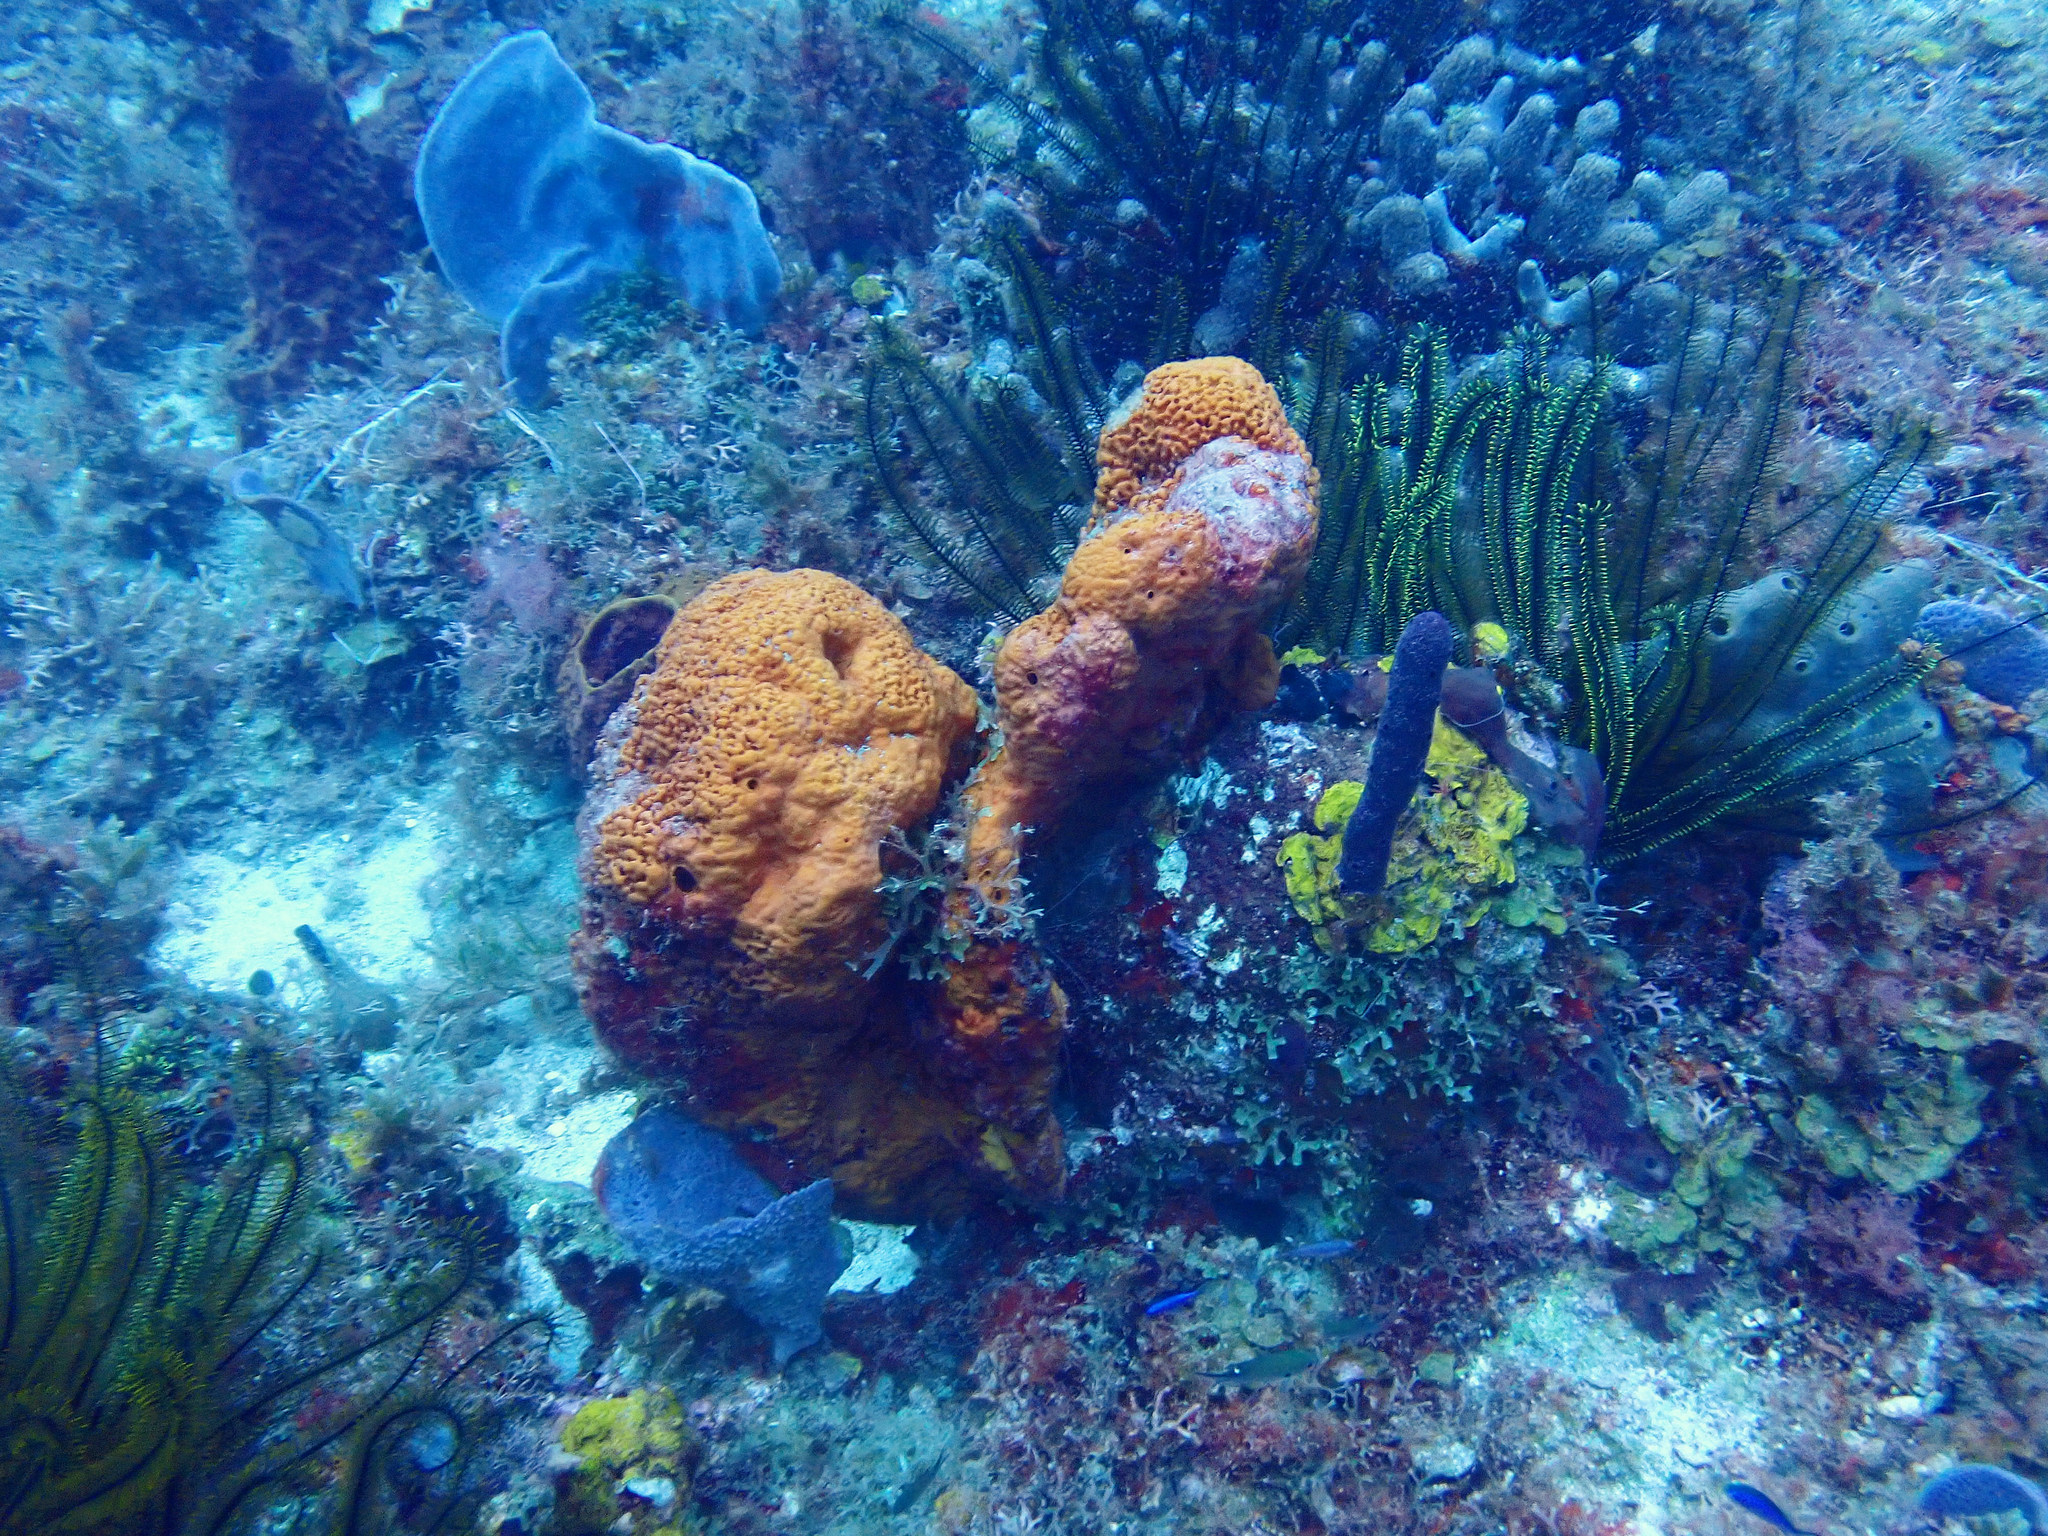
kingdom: Animalia
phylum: Porifera
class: Demospongiae
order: Agelasida
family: Agelasidae
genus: Agelas
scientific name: Agelas clathrodes
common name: Orange elephant ear sponge
